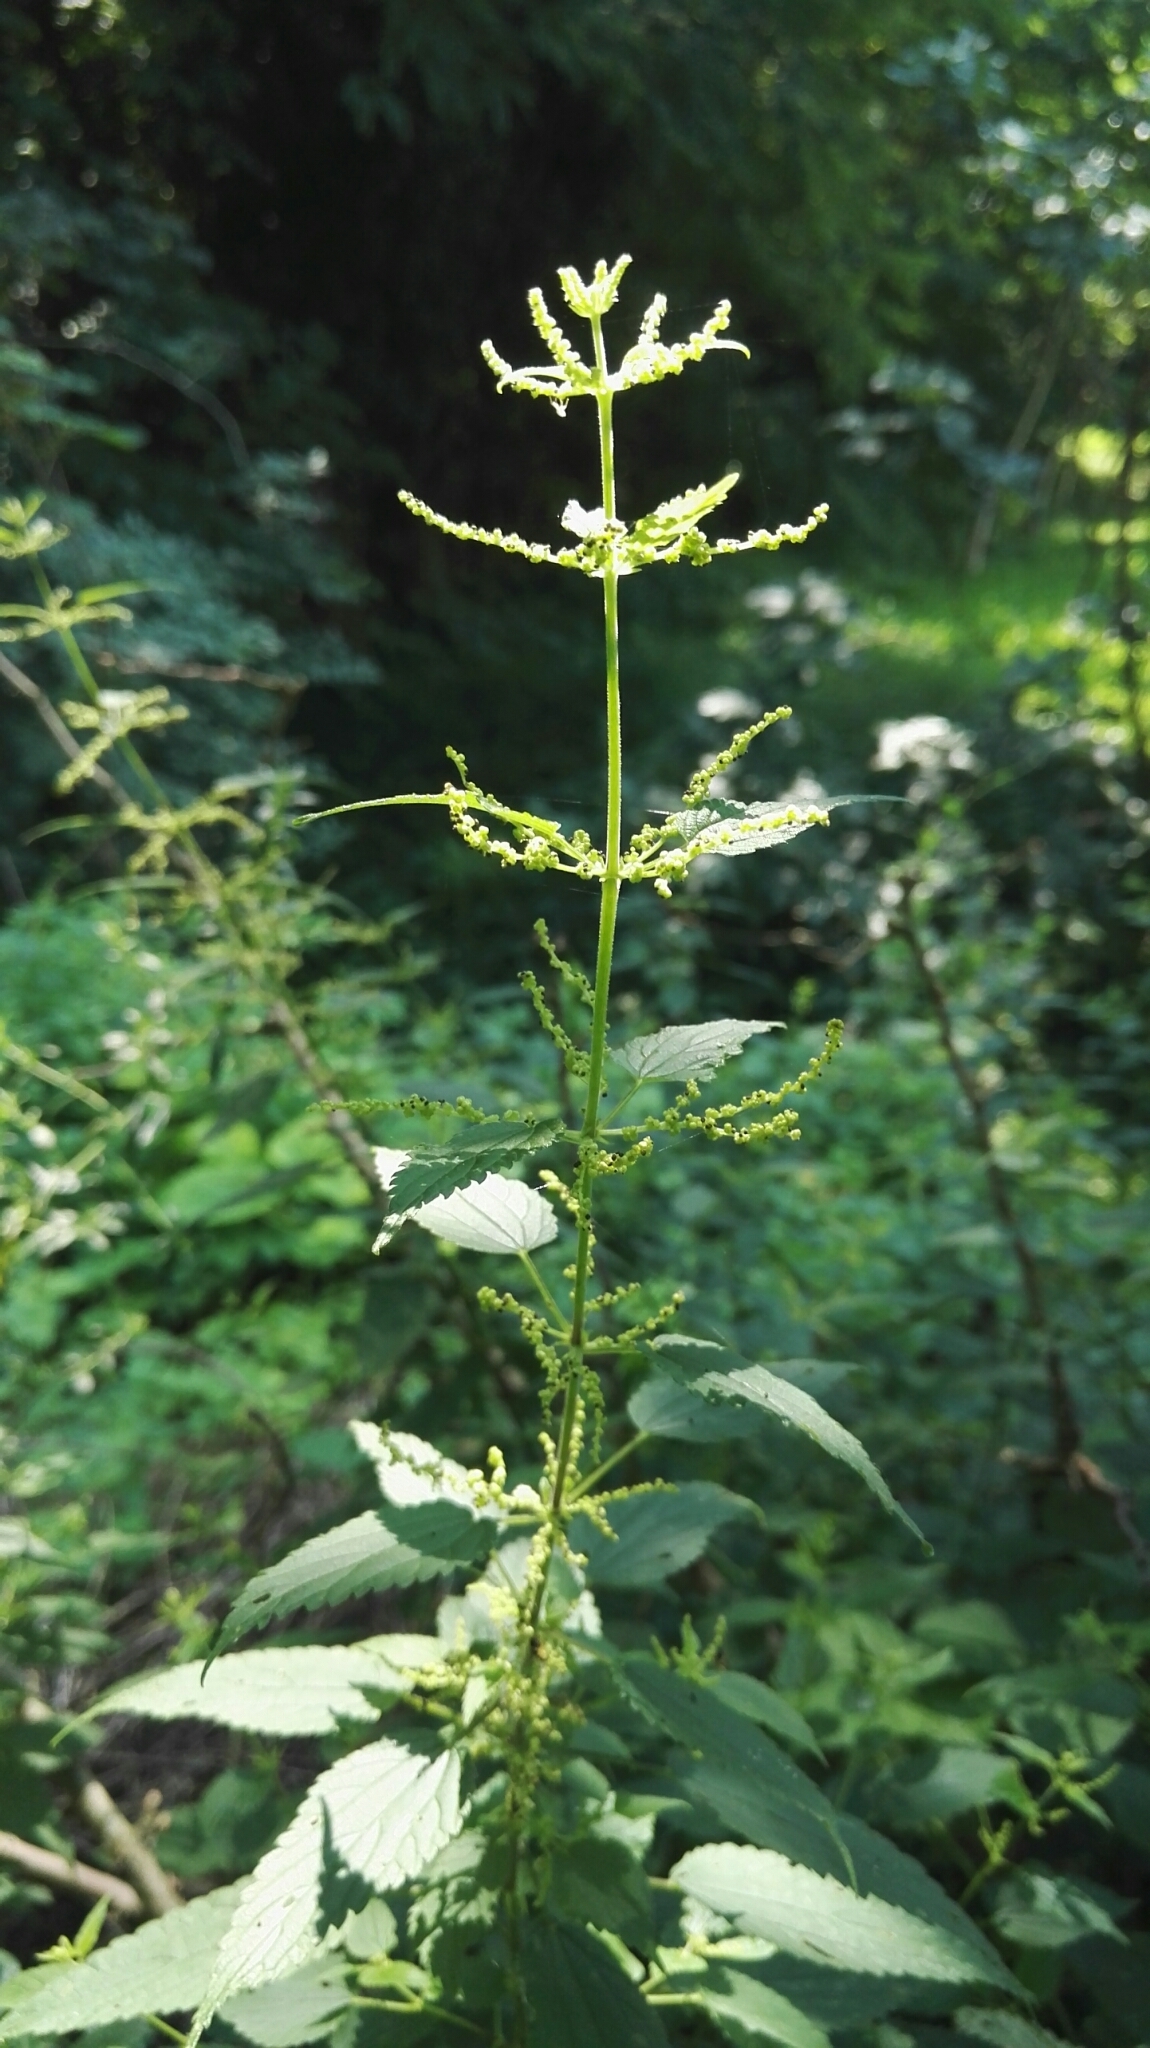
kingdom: Plantae
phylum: Tracheophyta
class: Magnoliopsida
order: Rosales
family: Urticaceae
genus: Urtica
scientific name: Urtica dioica
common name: Common nettle
